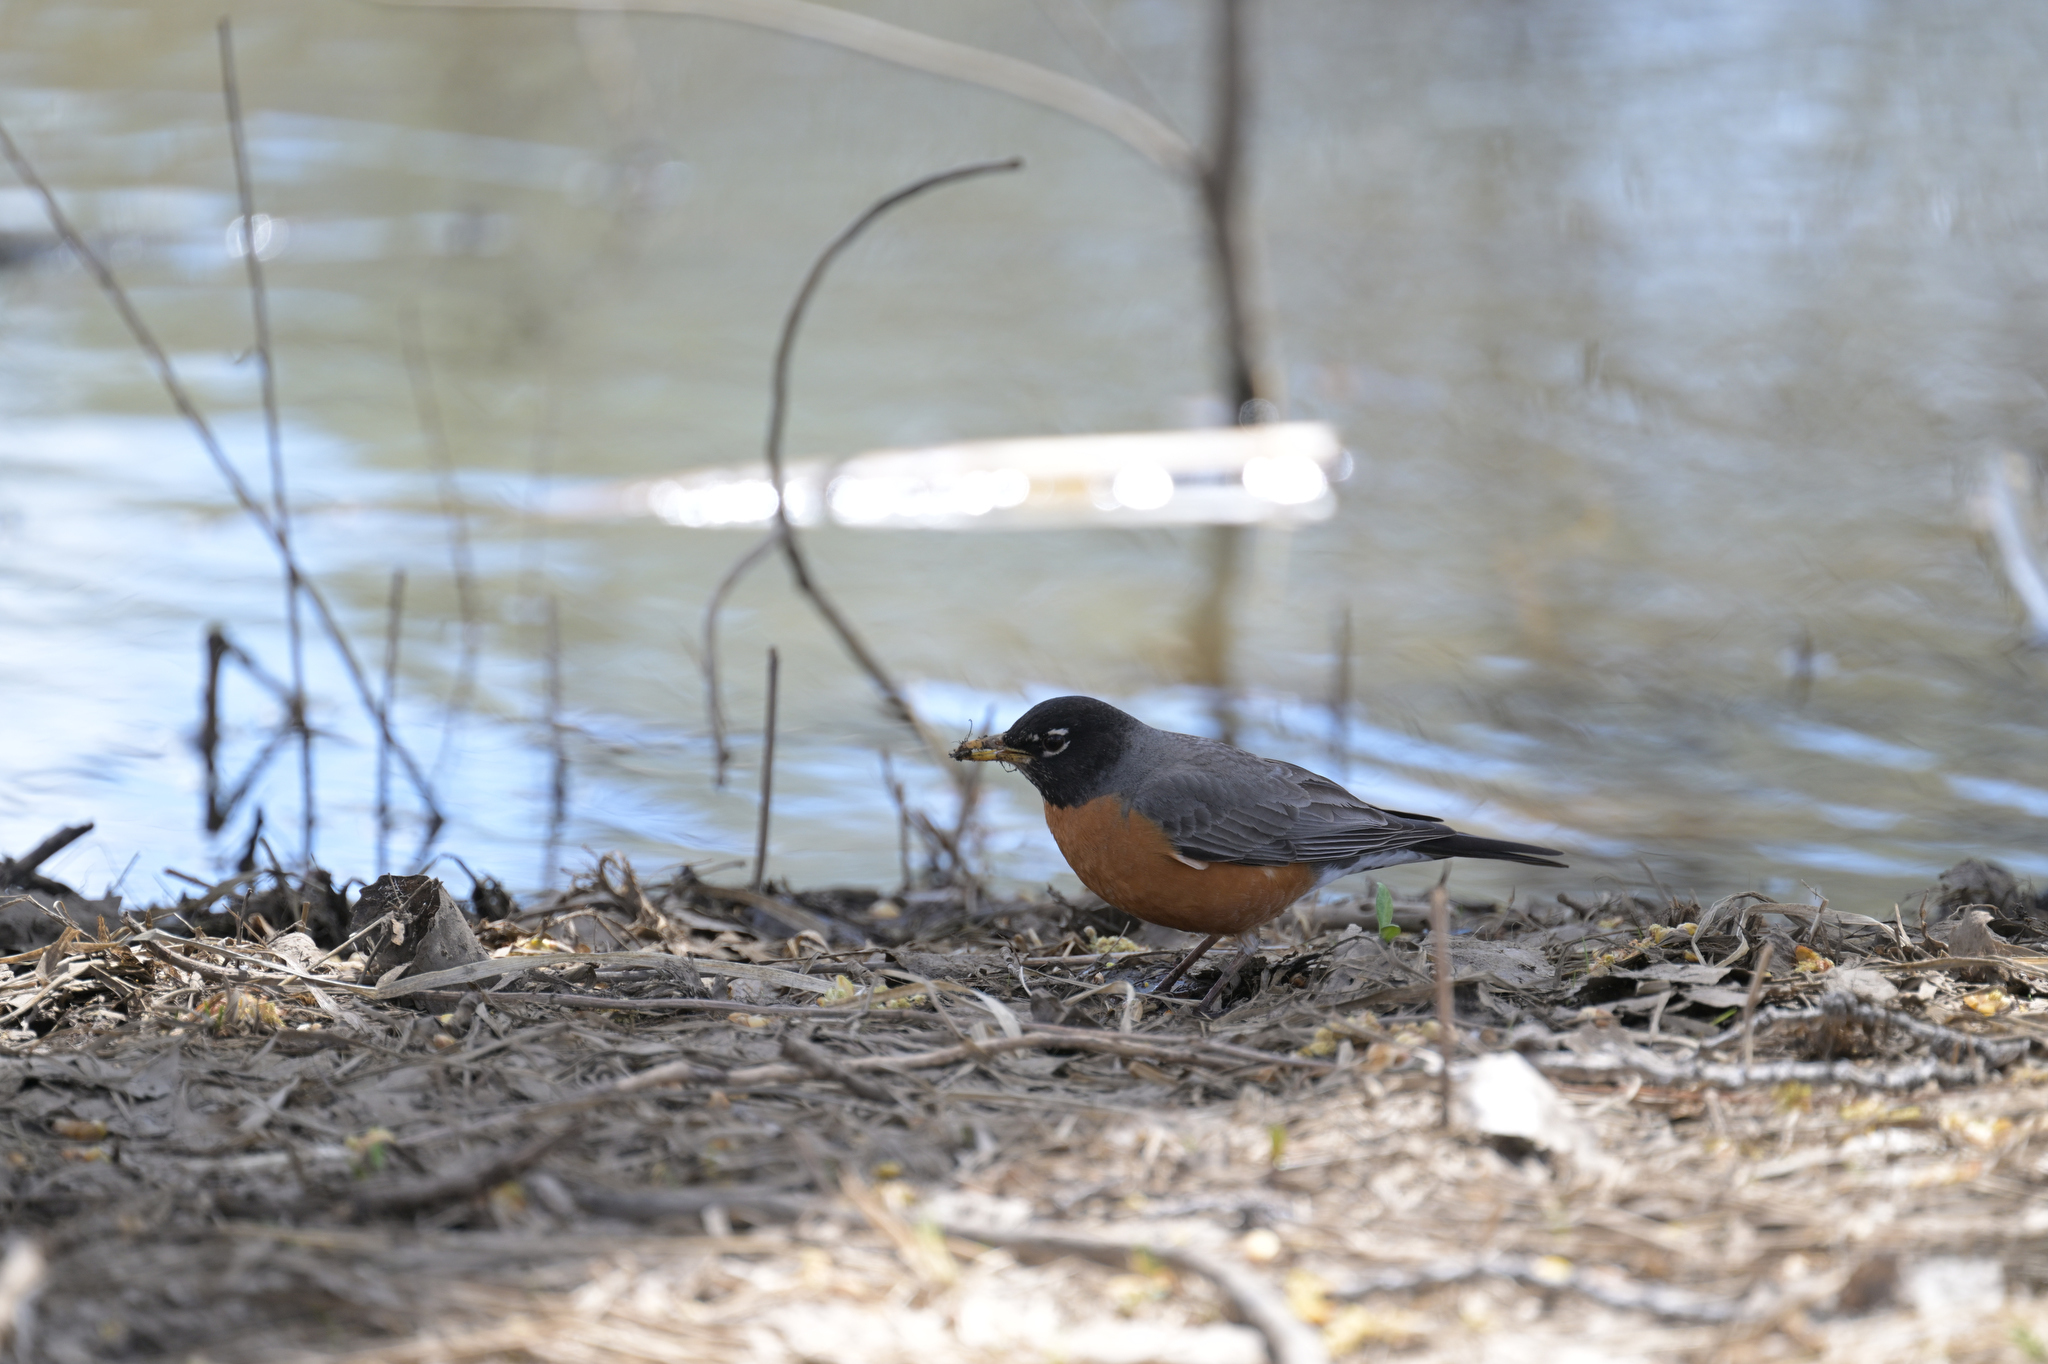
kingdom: Animalia
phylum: Chordata
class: Aves
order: Passeriformes
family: Turdidae
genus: Turdus
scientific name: Turdus migratorius
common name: American robin
